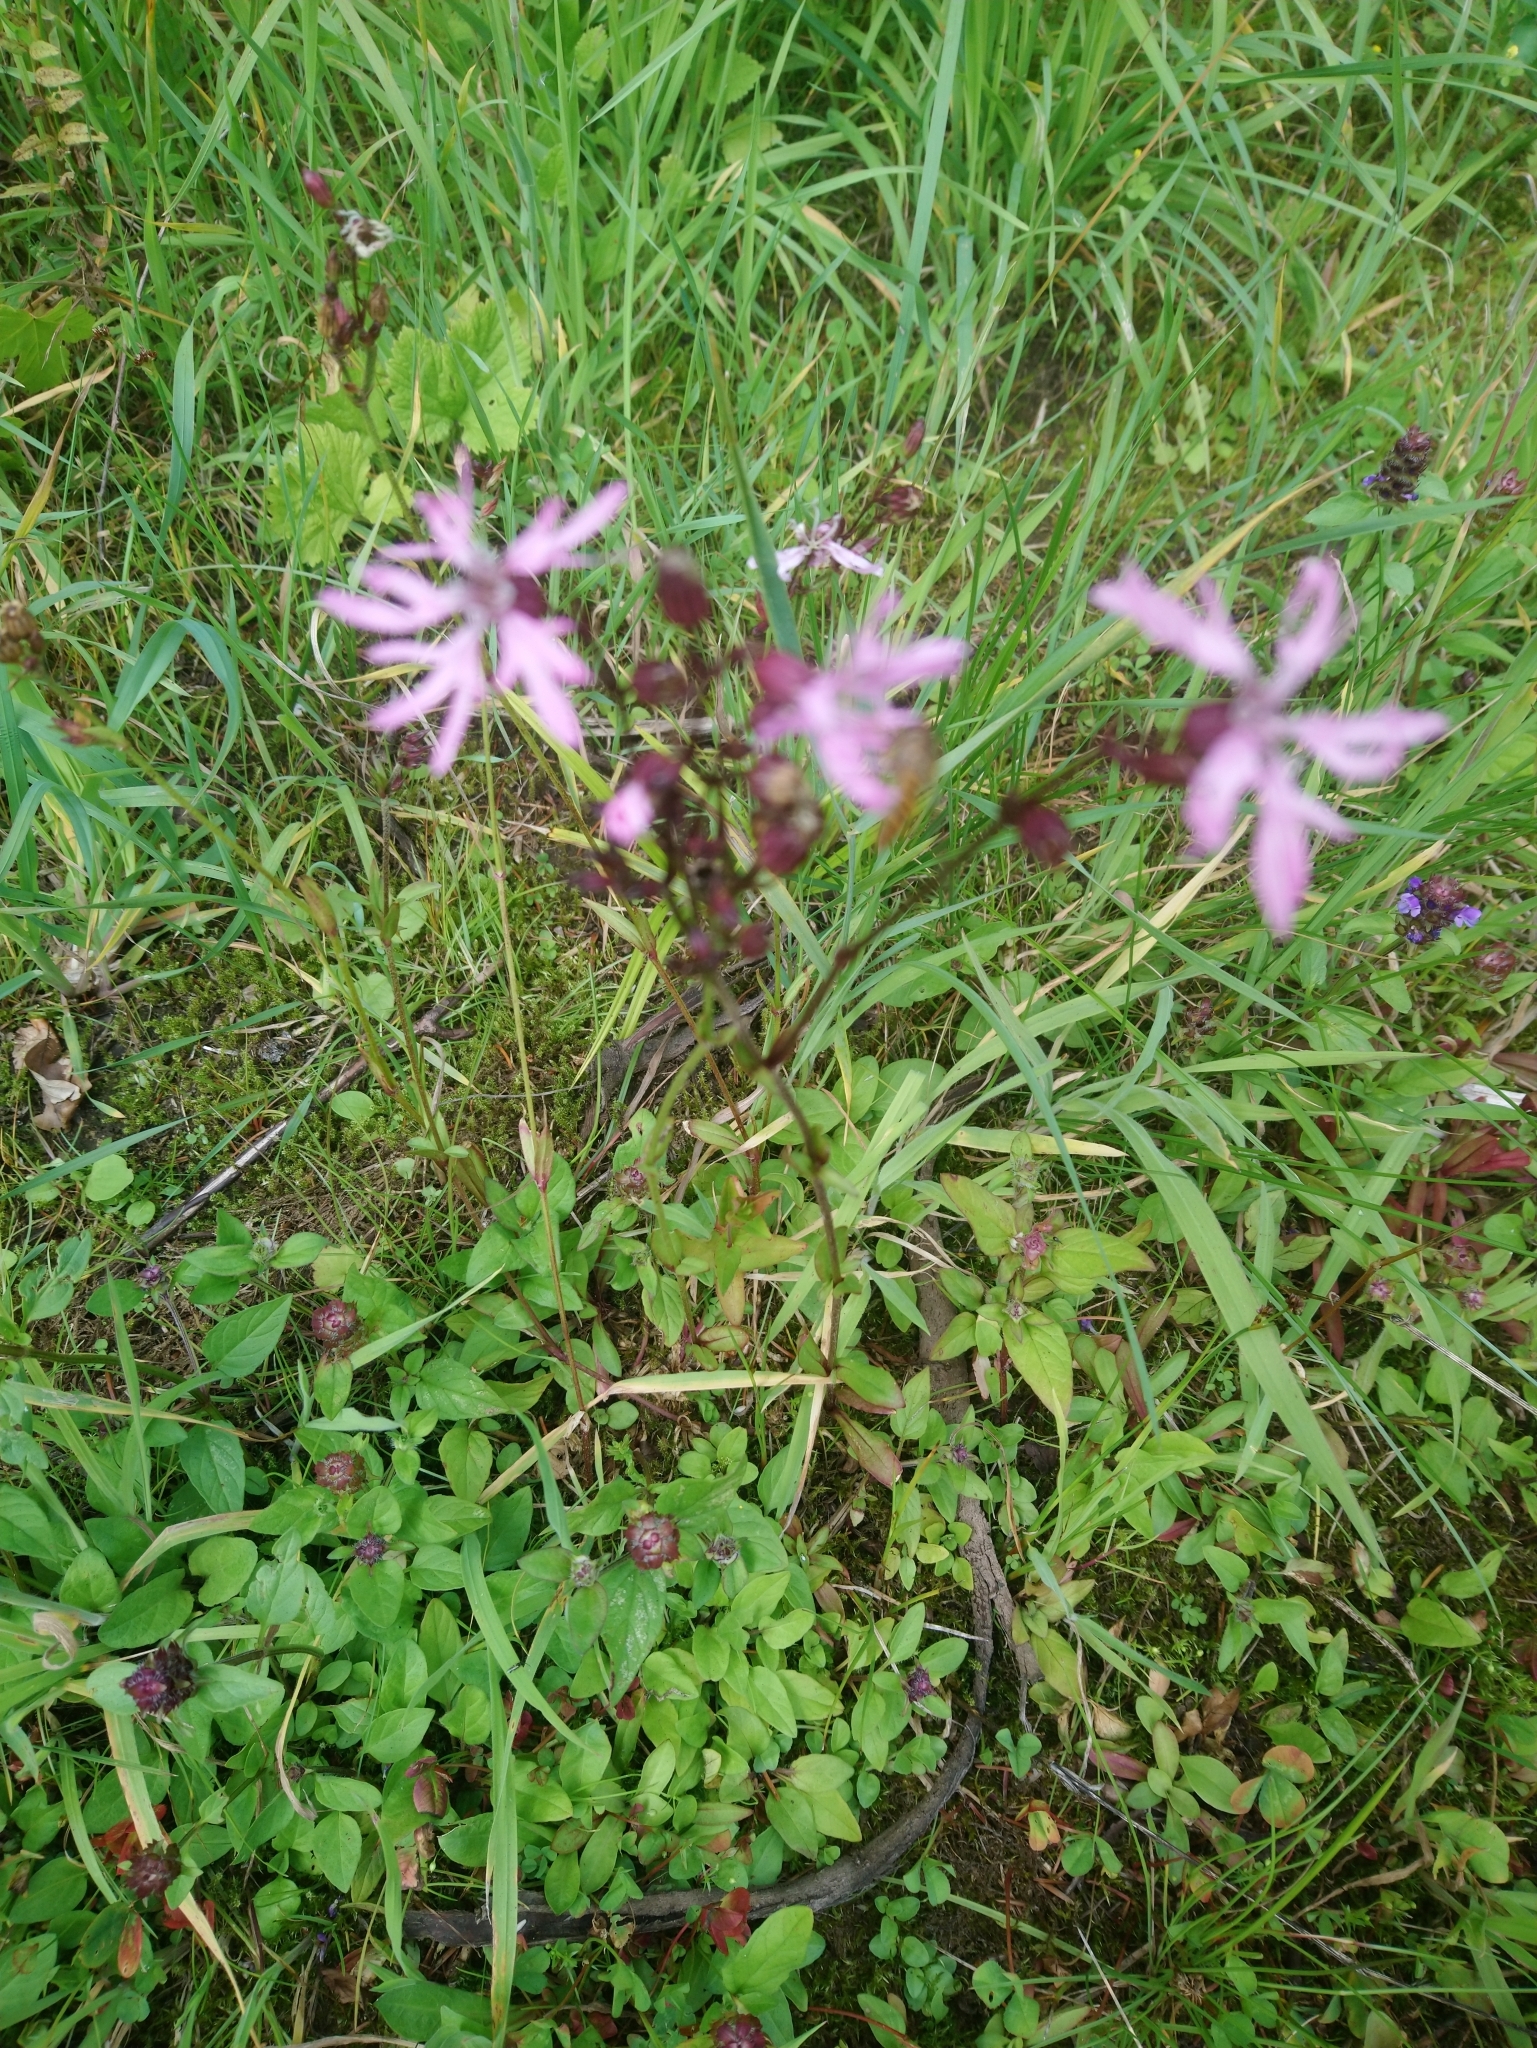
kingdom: Plantae
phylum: Tracheophyta
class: Magnoliopsida
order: Caryophyllales
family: Caryophyllaceae
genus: Silene
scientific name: Silene flos-cuculi
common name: Ragged-robin
